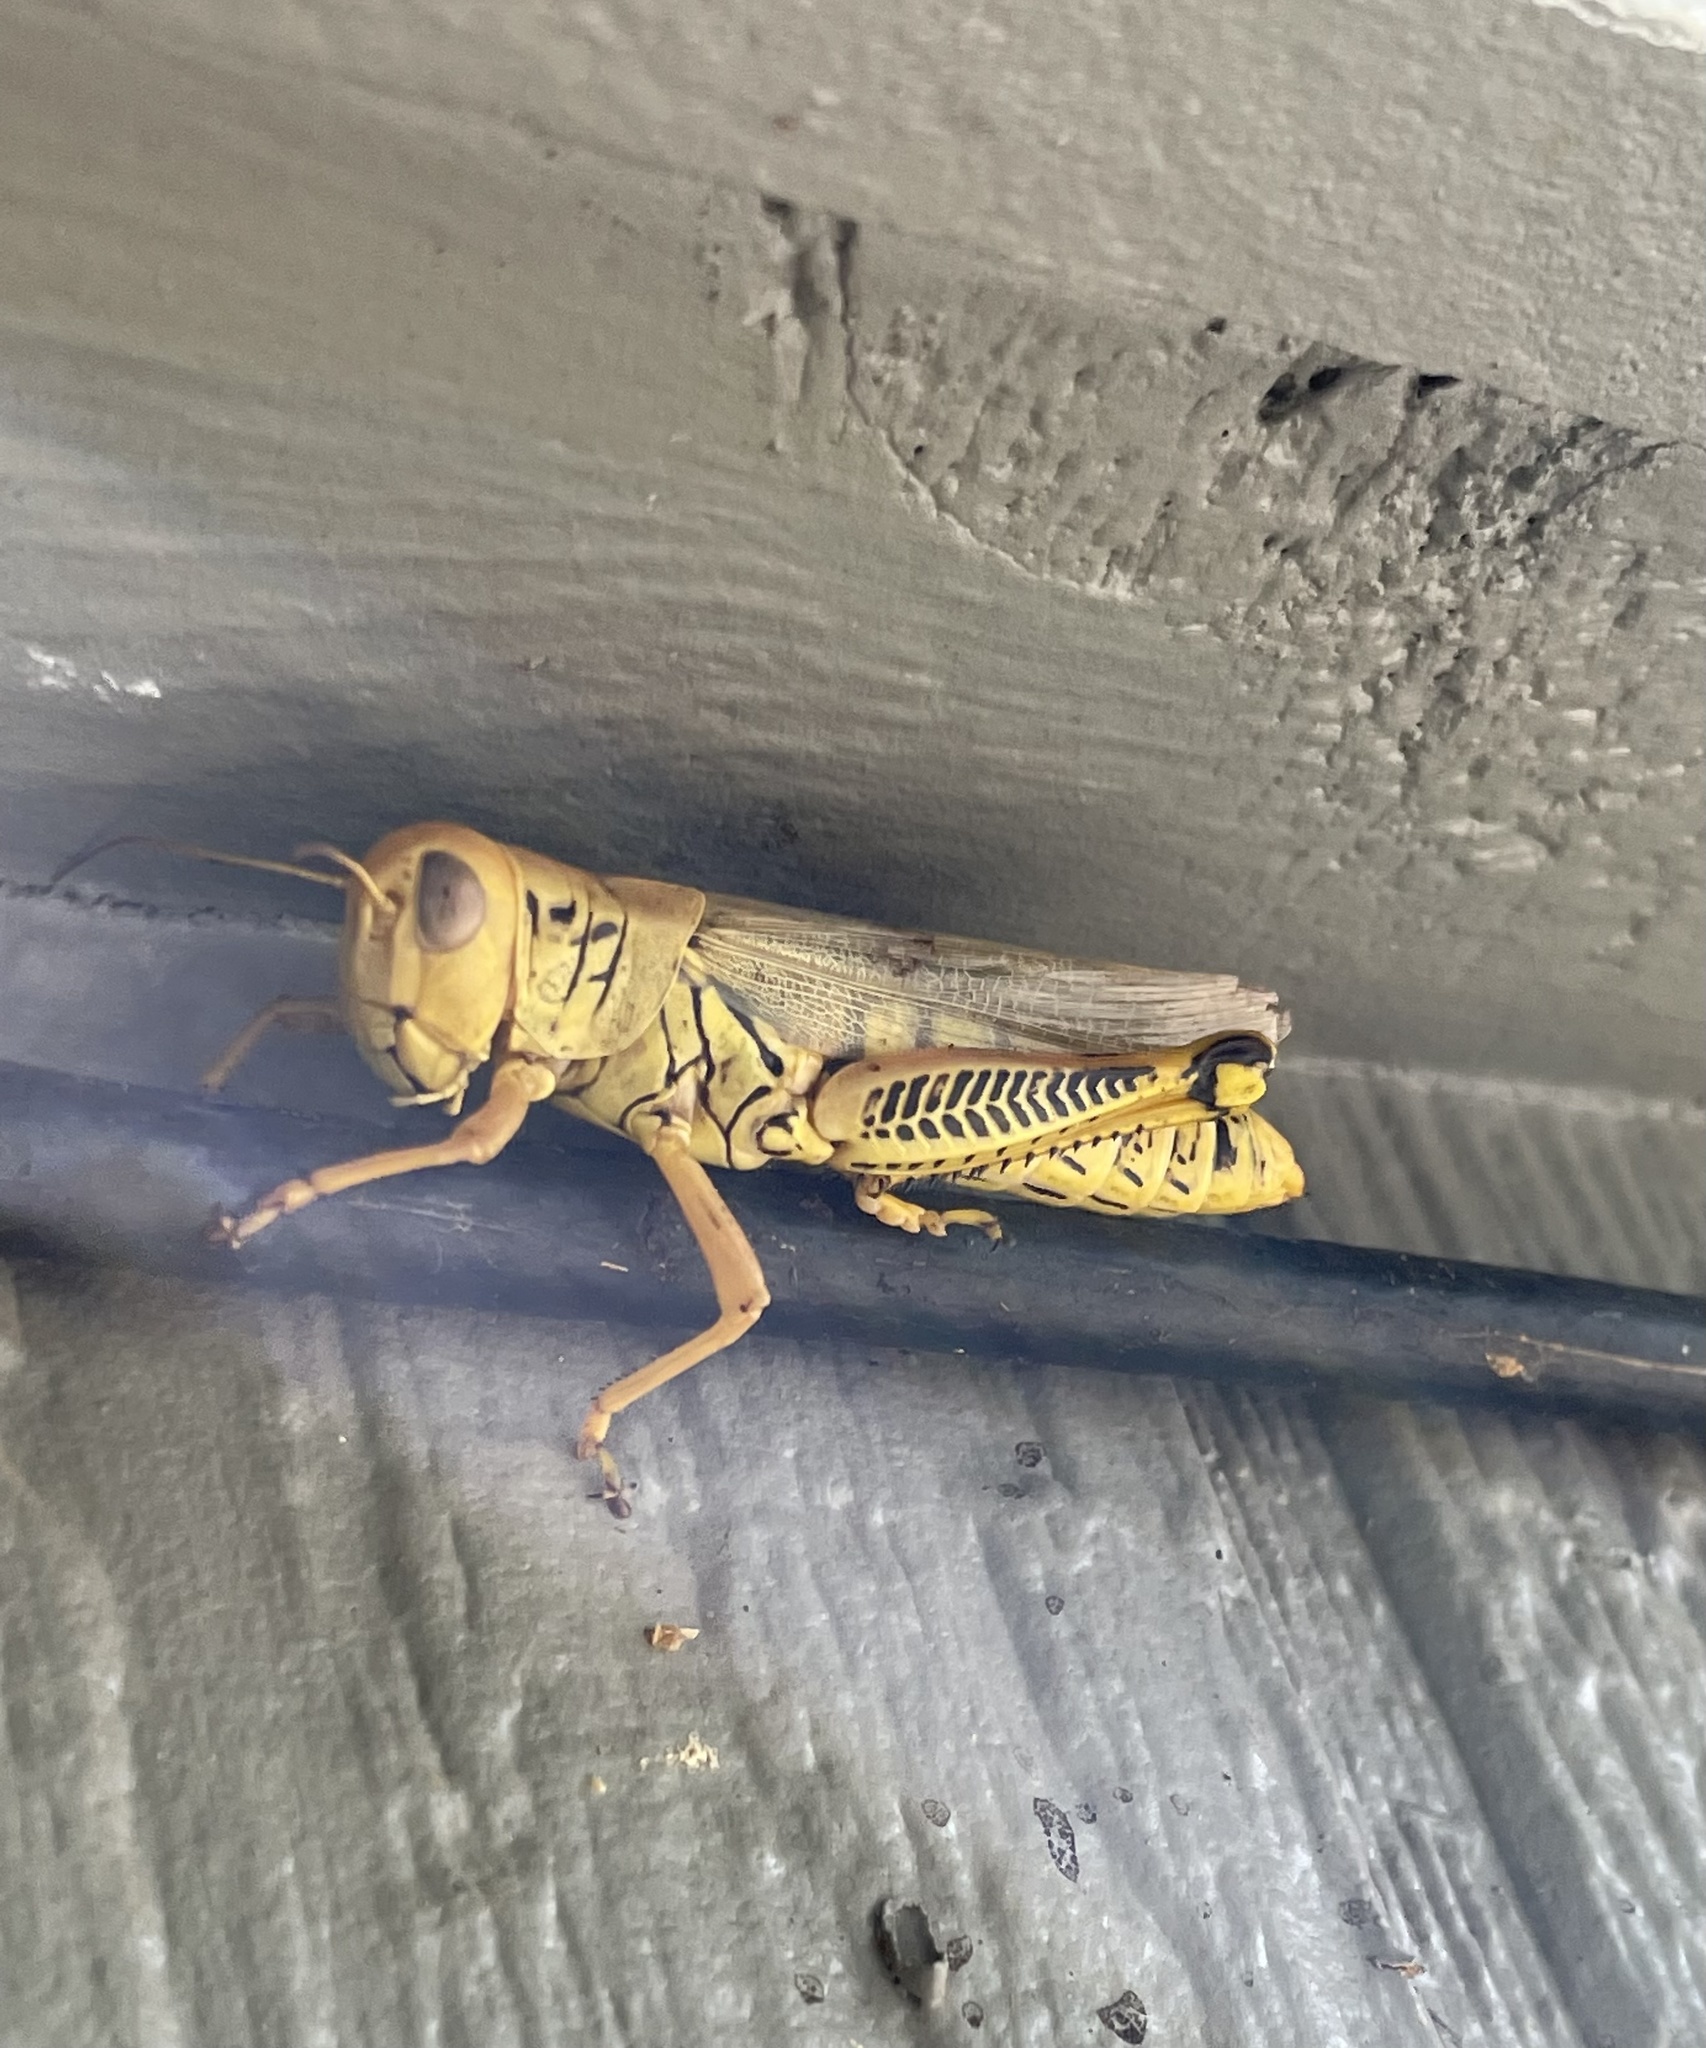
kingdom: Animalia
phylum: Arthropoda
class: Insecta
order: Orthoptera
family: Acrididae
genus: Melanoplus
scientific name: Melanoplus differentialis
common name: Differential grasshopper
